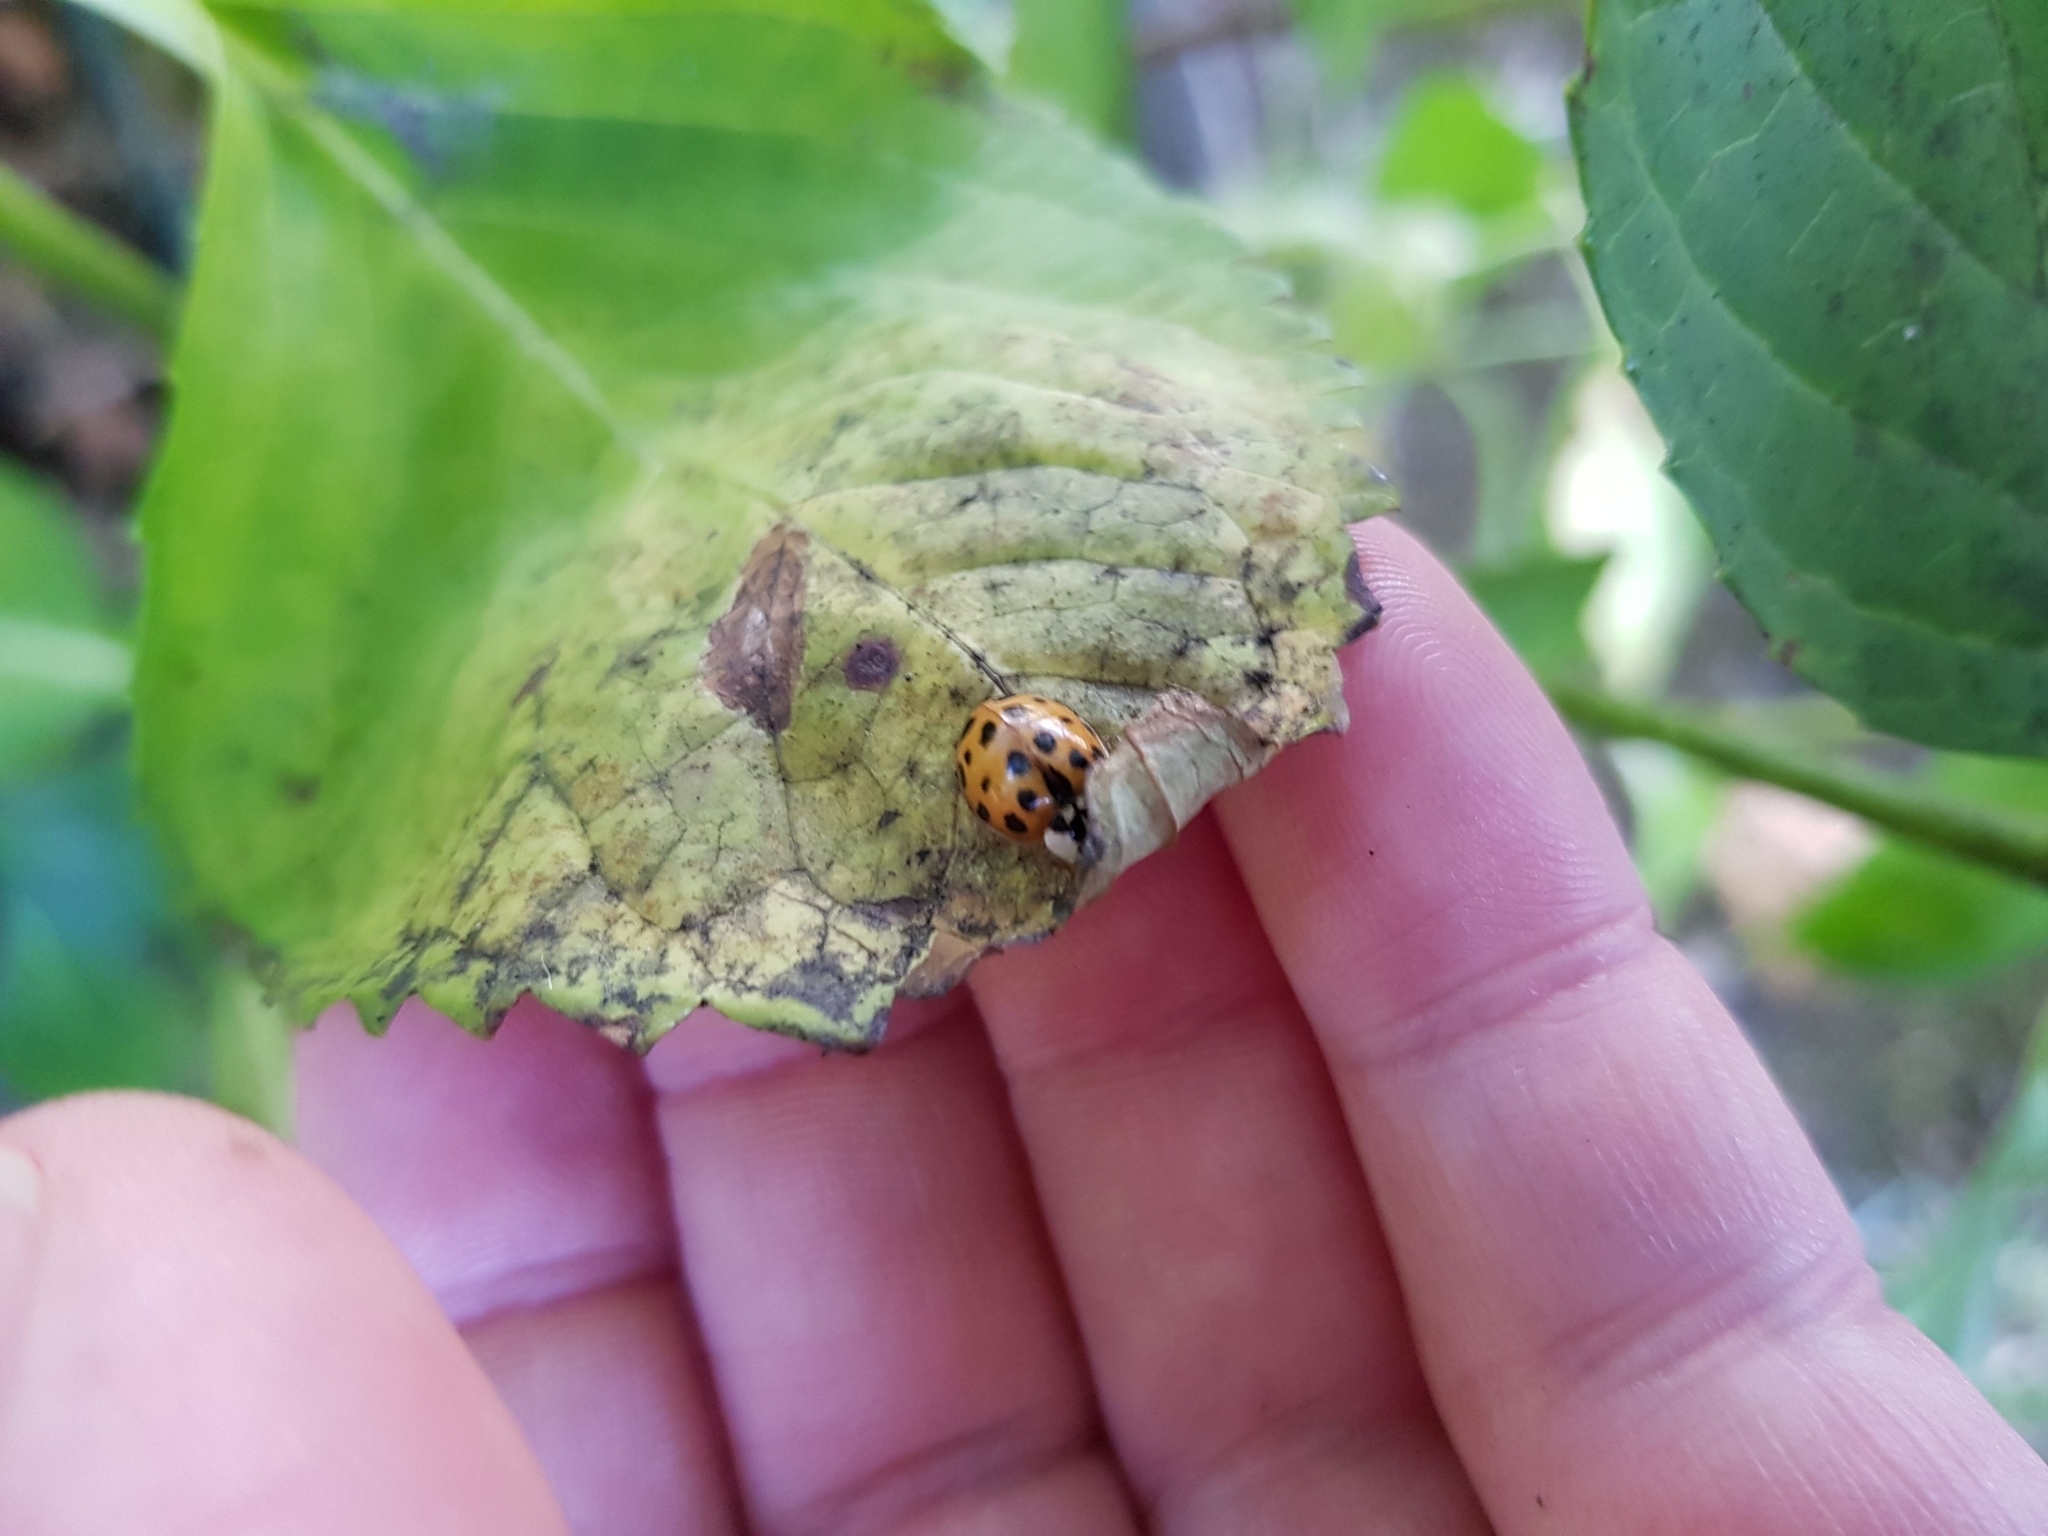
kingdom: Animalia
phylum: Arthropoda
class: Insecta
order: Coleoptera
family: Coccinellidae
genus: Harmonia
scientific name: Harmonia axyridis
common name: Harlequin ladybird
